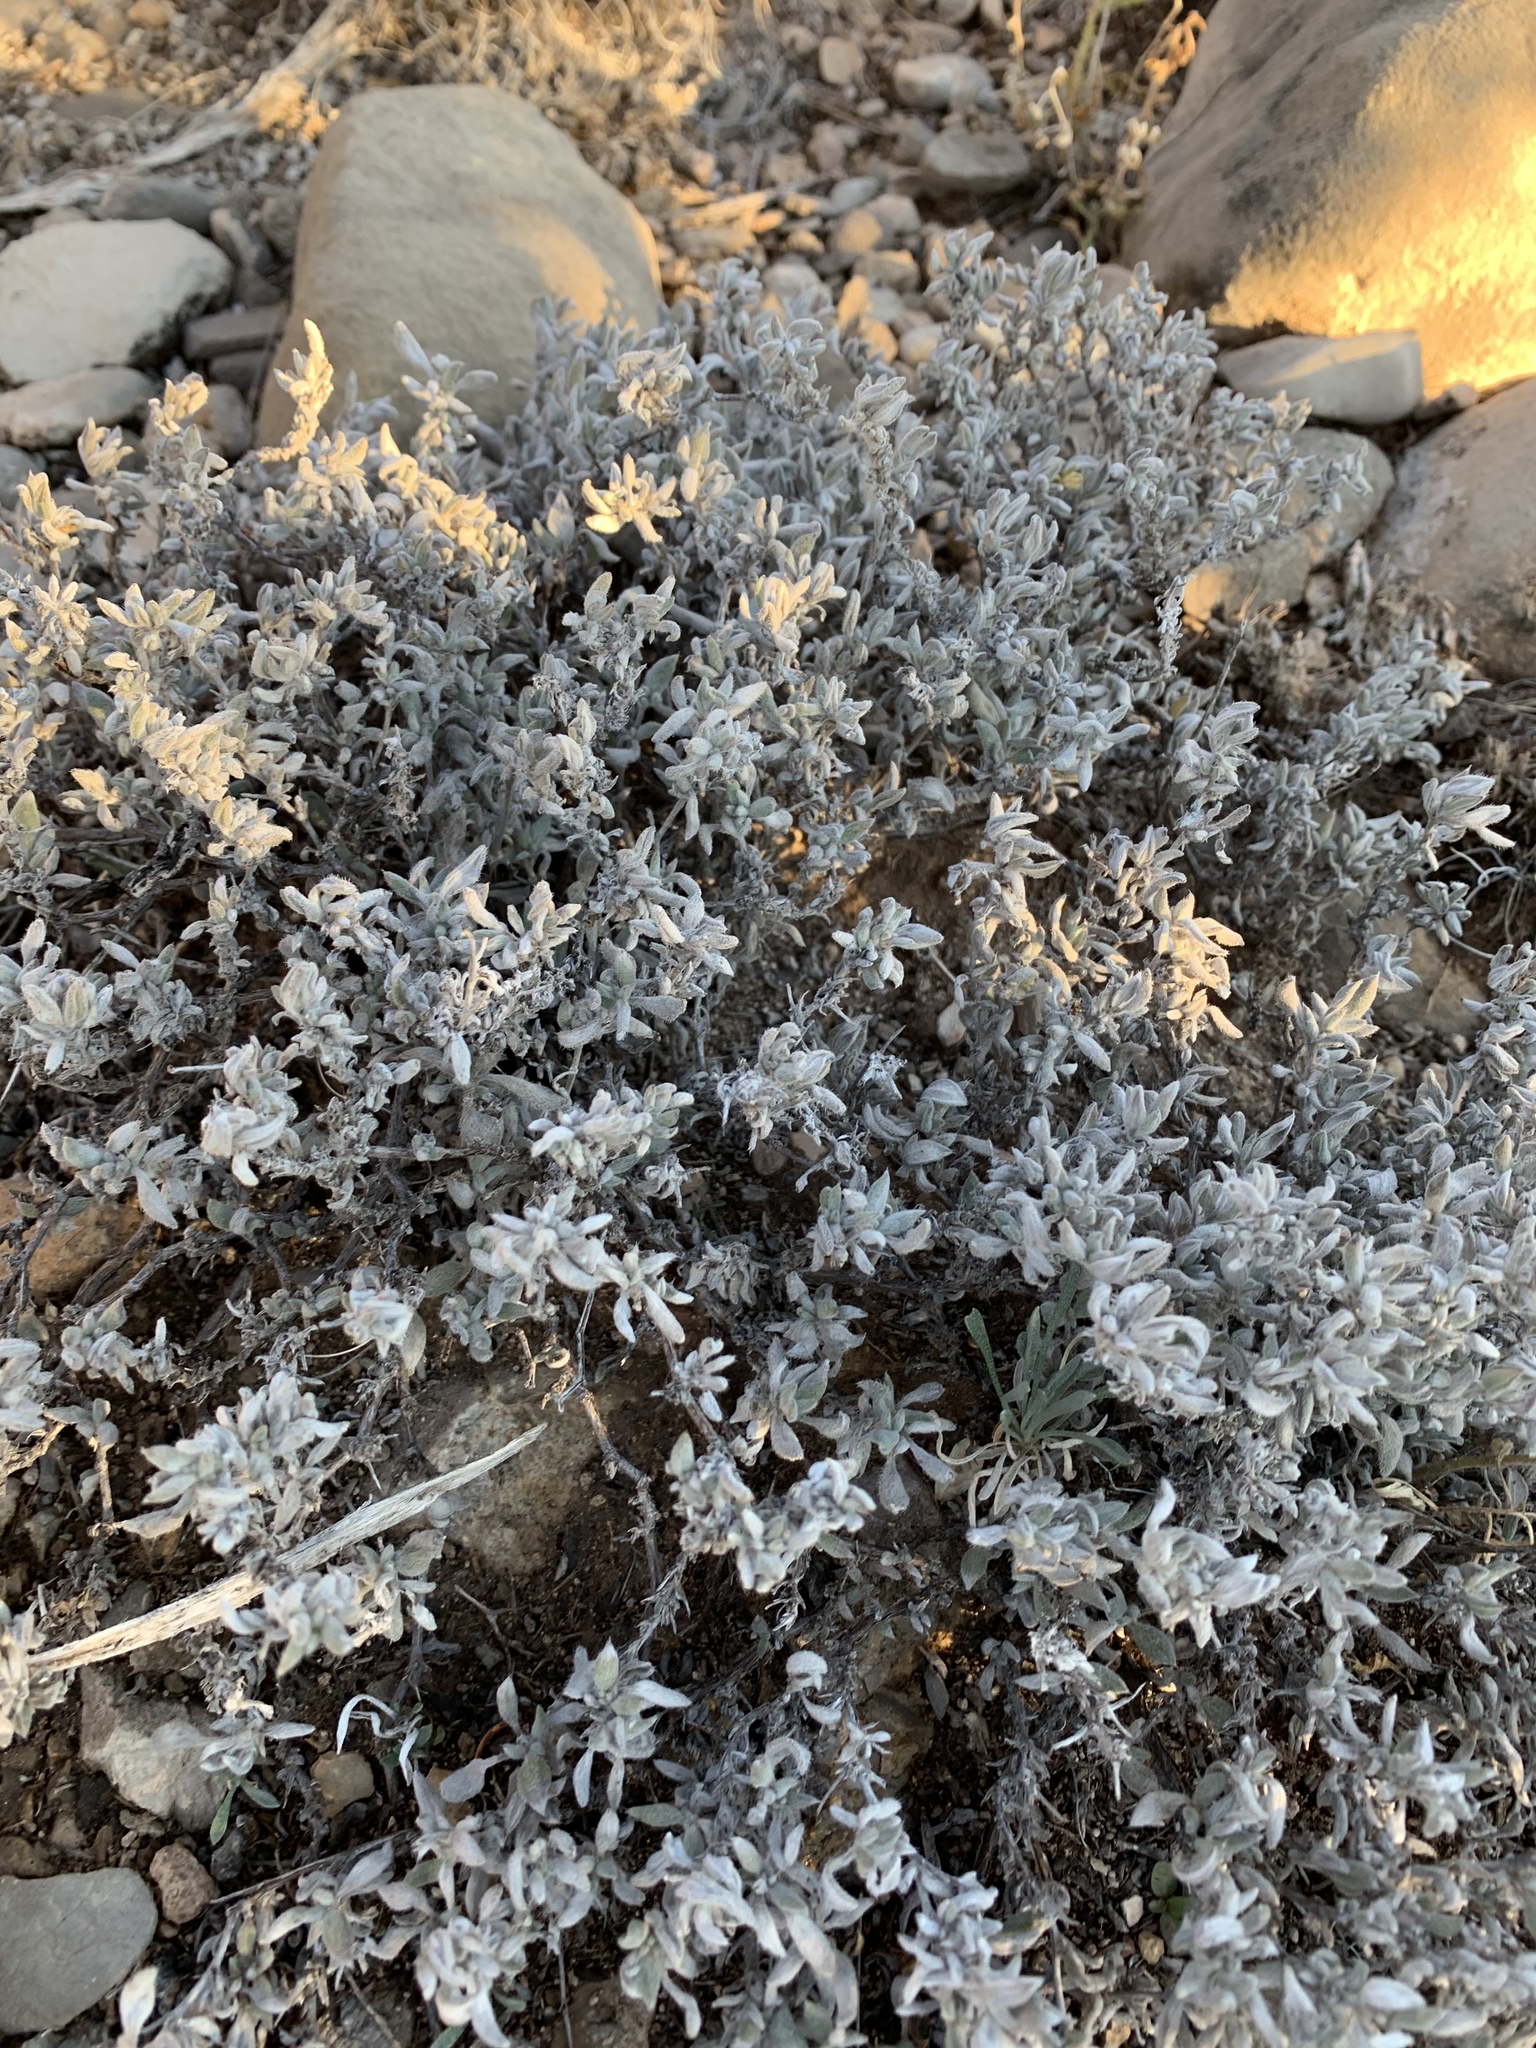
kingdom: Plantae
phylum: Tracheophyta
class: Magnoliopsida
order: Boraginales
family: Ehretiaceae
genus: Tiquilia
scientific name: Tiquilia canescens
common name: Hairy tiquilia
